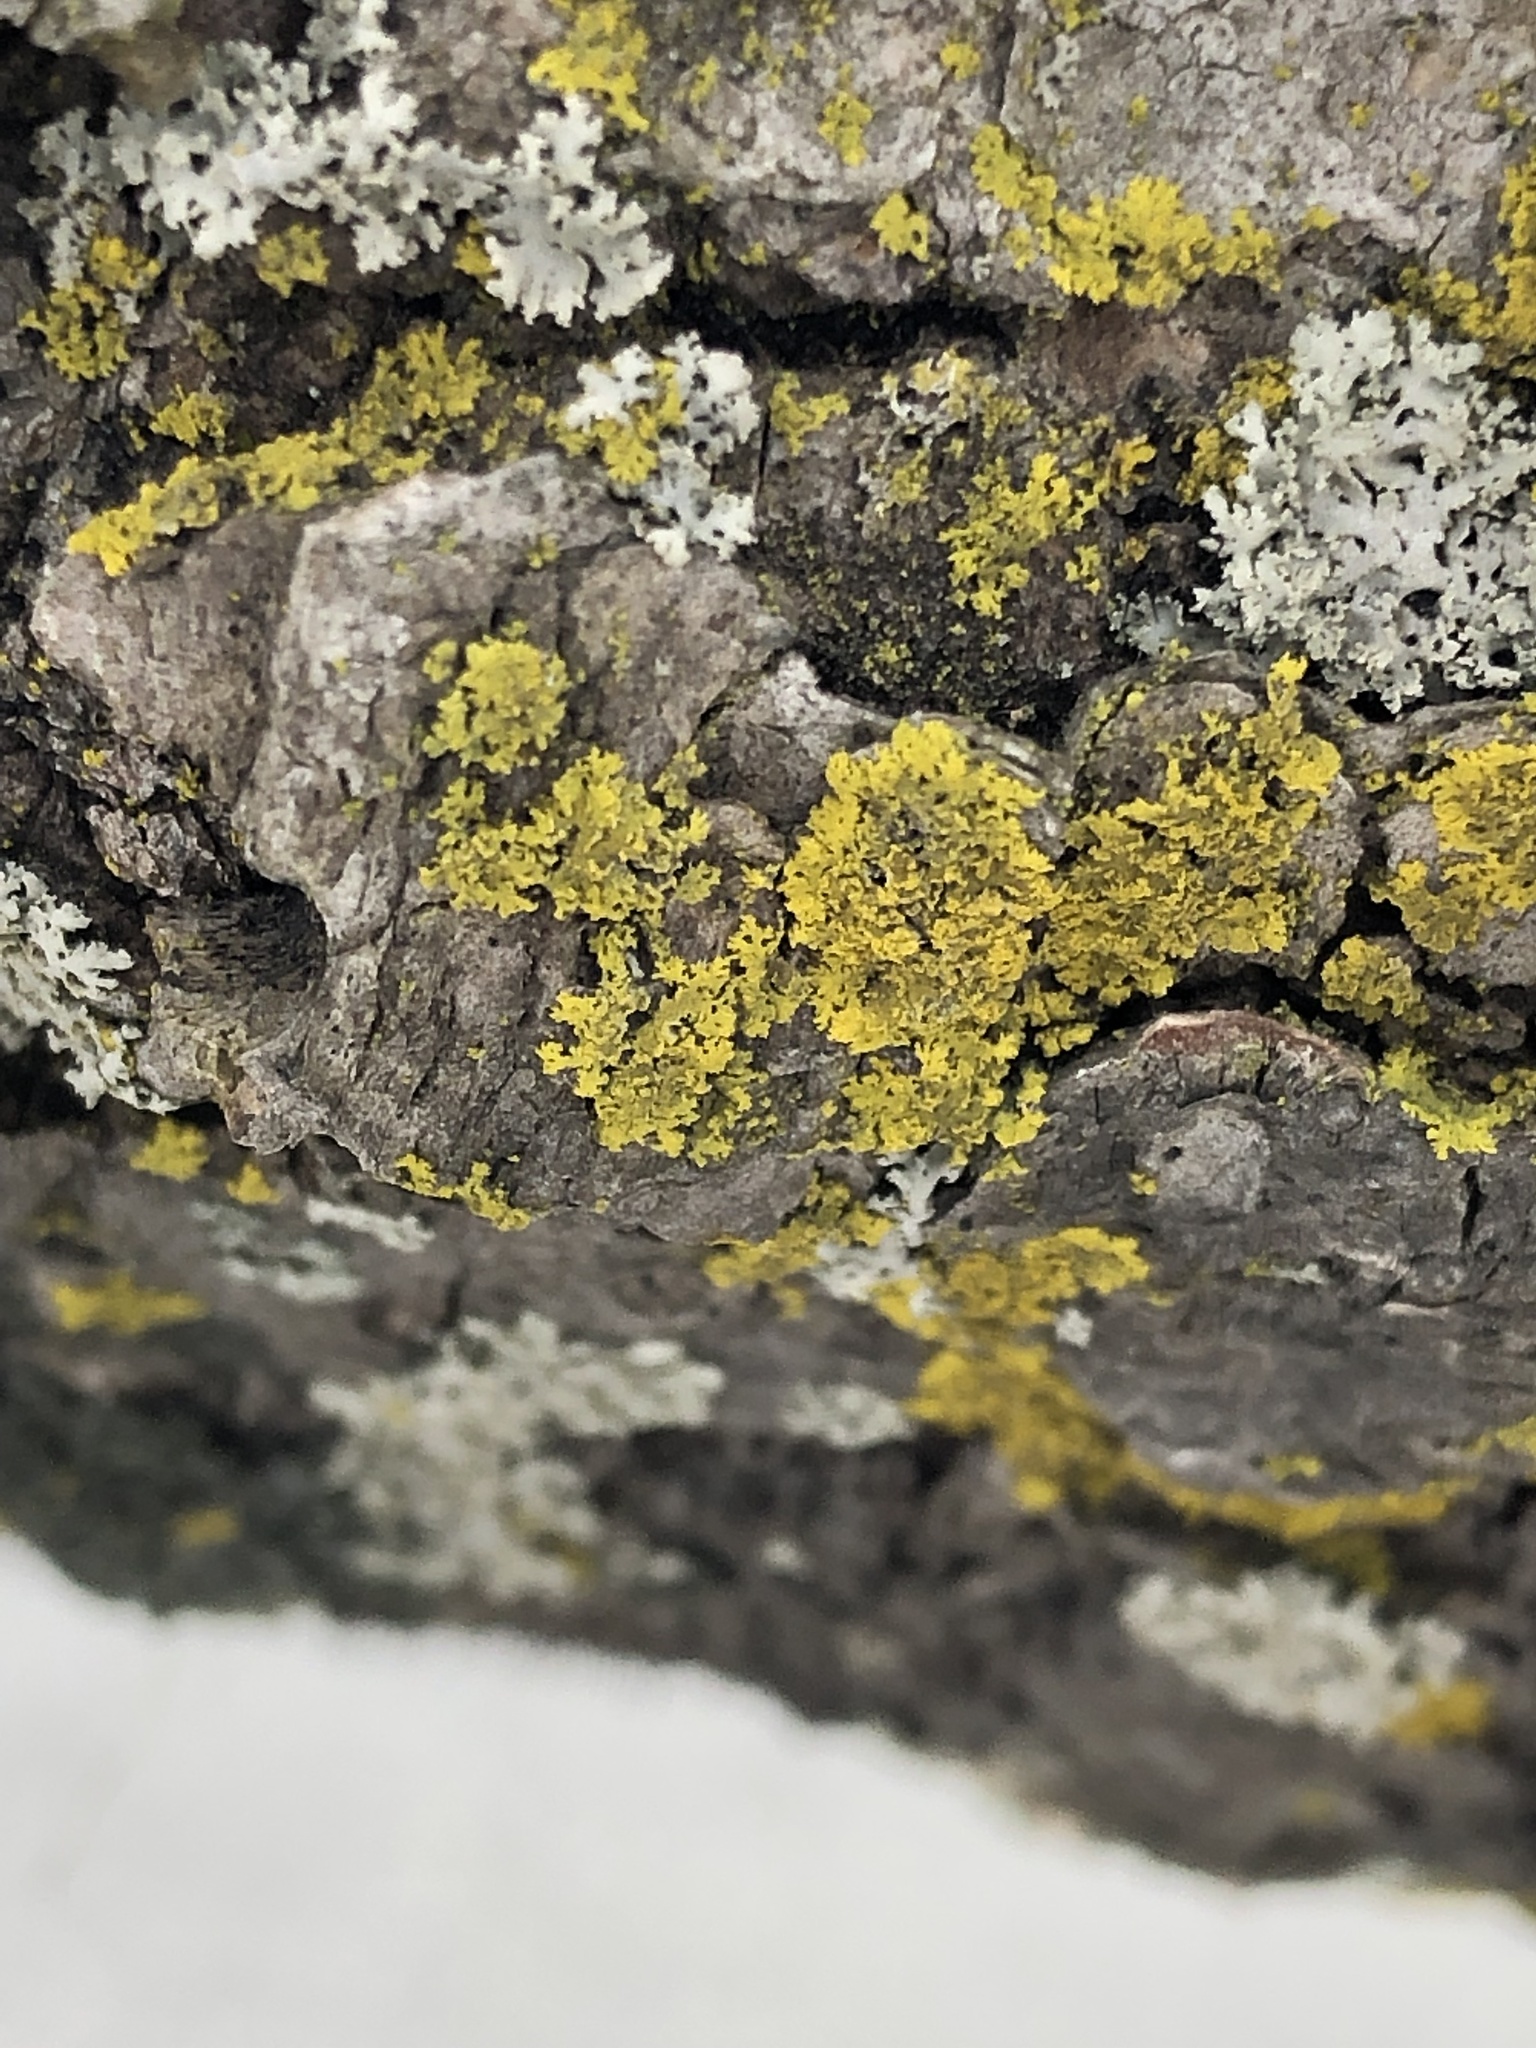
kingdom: Fungi
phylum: Ascomycota
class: Candelariomycetes
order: Candelariales
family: Candelariaceae
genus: Candelaria
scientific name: Candelaria concolor
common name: Candleflame lichen
